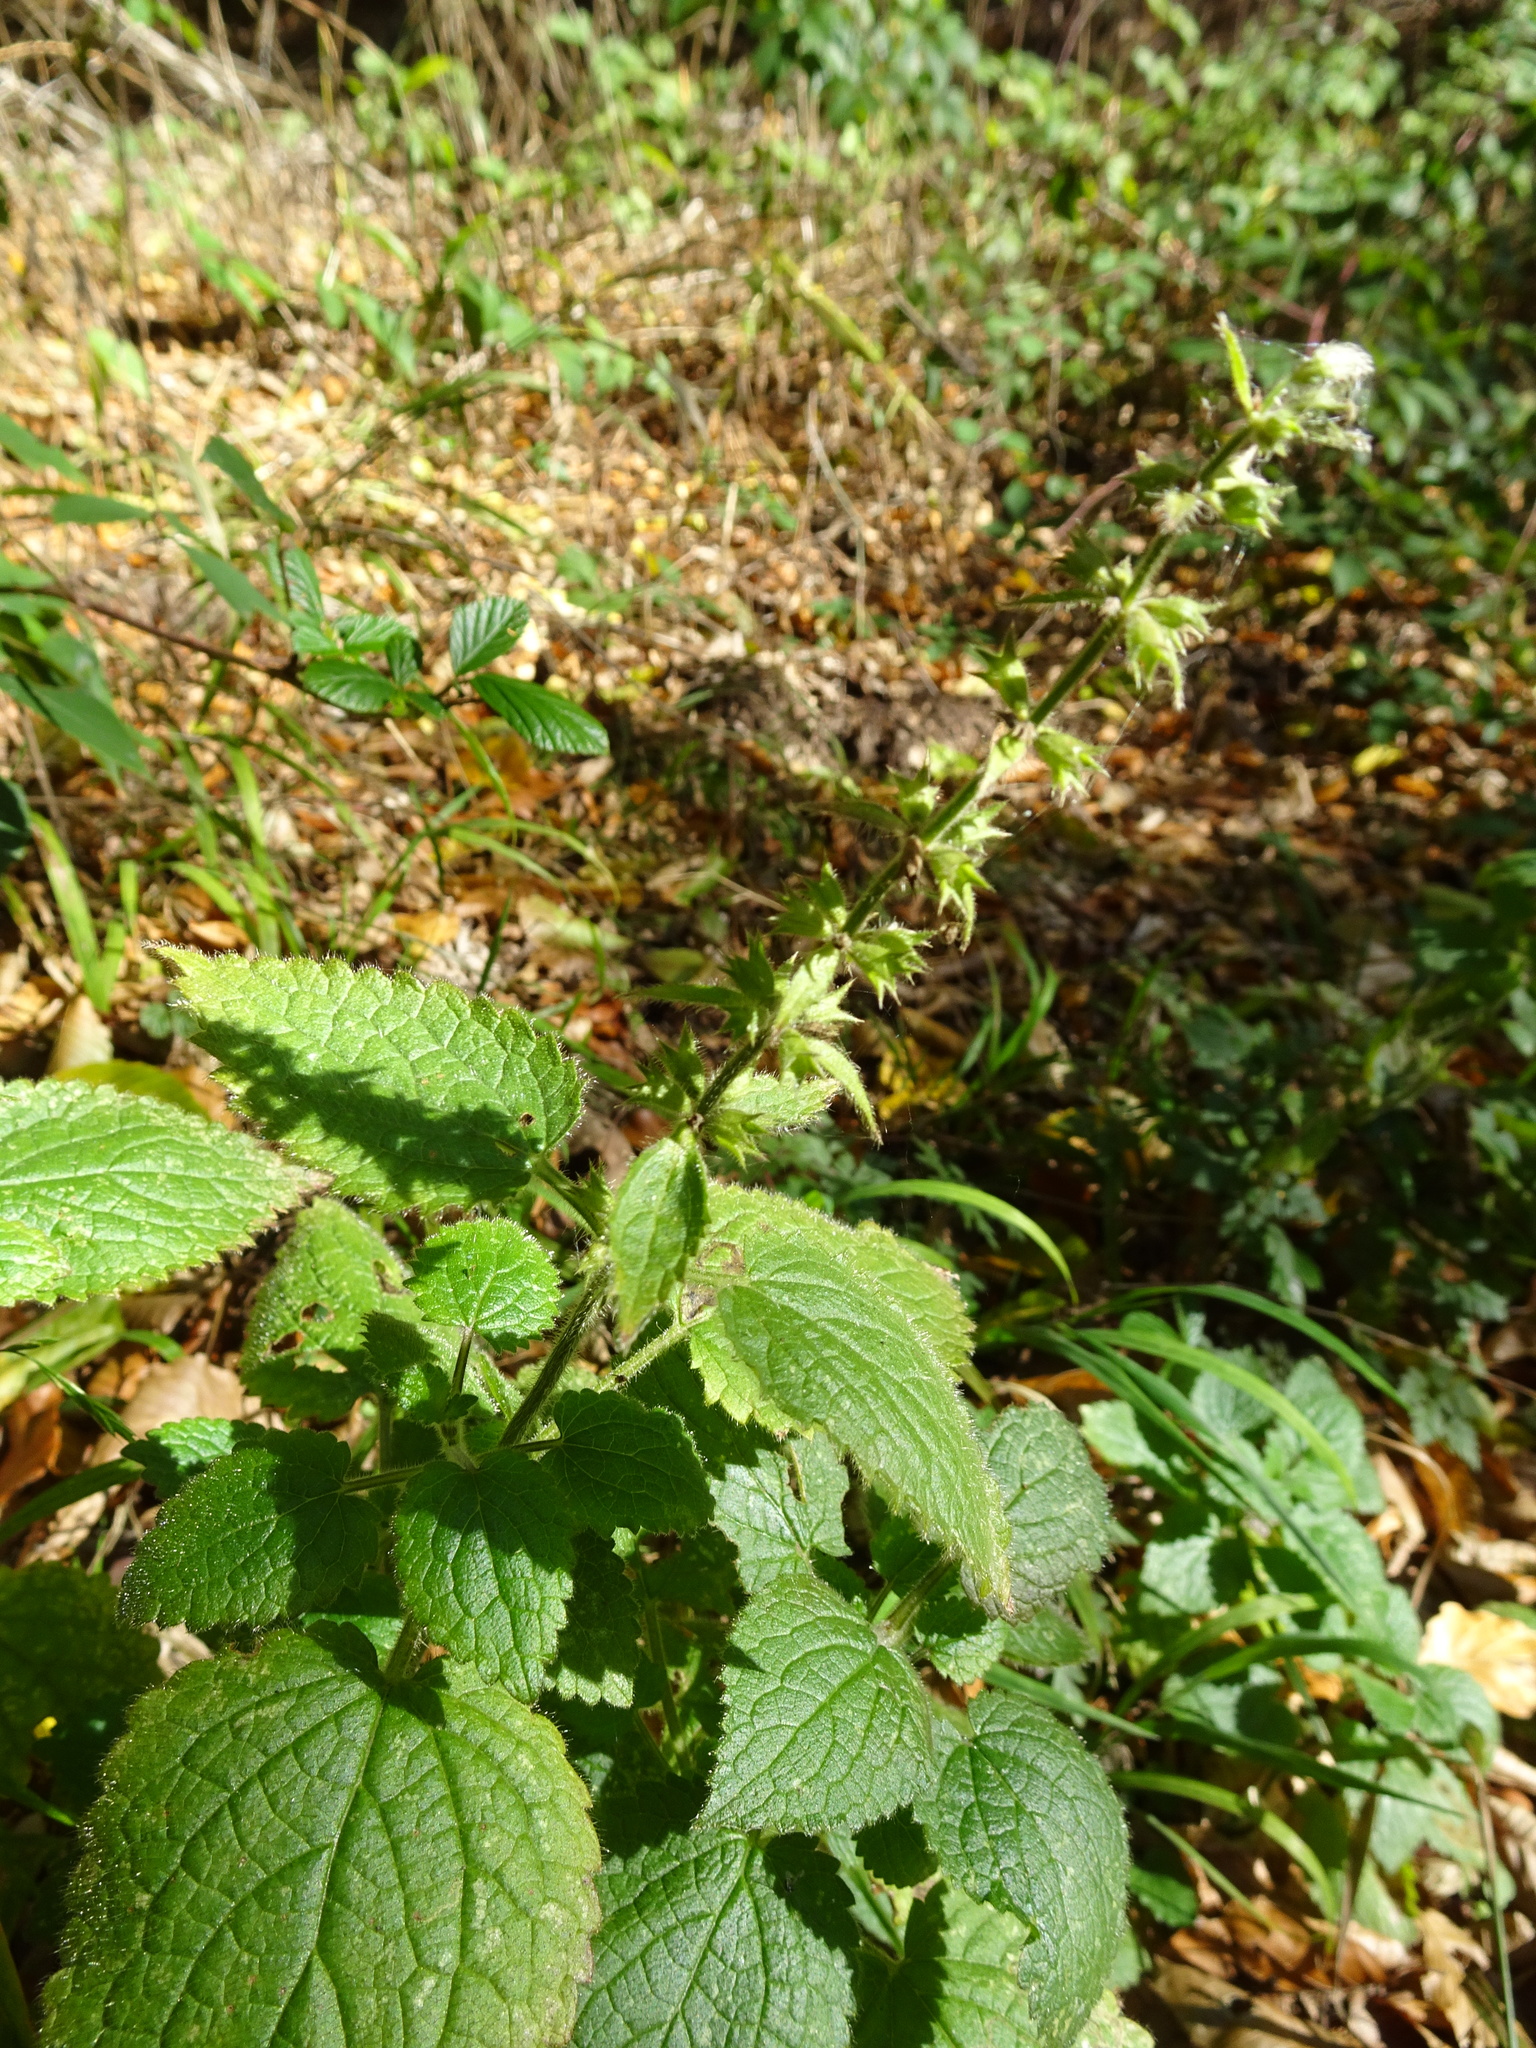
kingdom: Plantae
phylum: Tracheophyta
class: Magnoliopsida
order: Lamiales
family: Lamiaceae
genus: Stachys
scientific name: Stachys sylvatica
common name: Hedge woundwort
